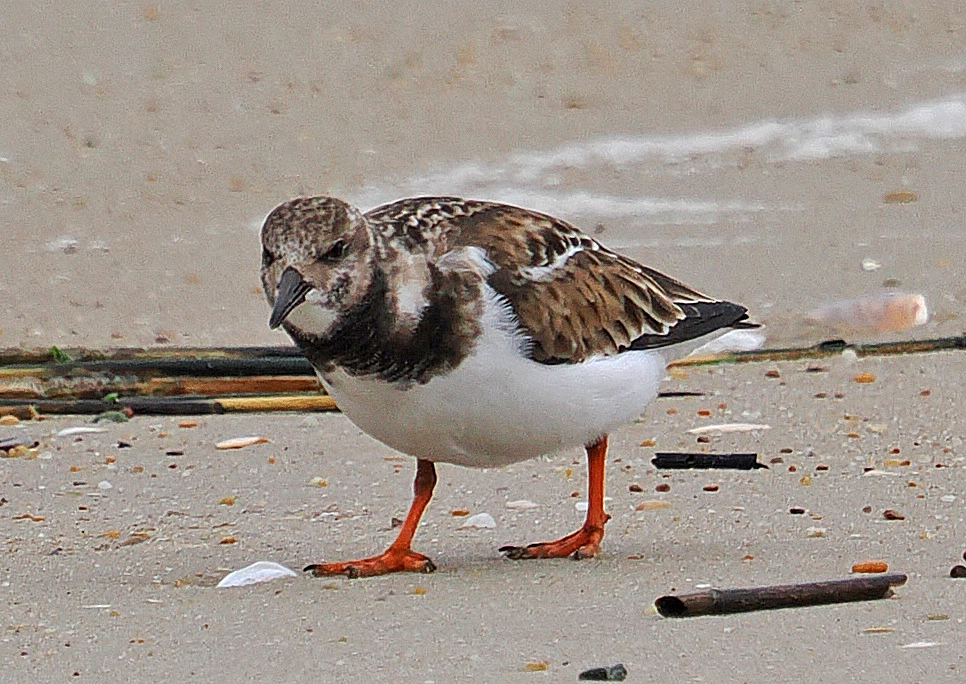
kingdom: Animalia
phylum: Chordata
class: Aves
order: Charadriiformes
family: Scolopacidae
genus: Arenaria
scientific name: Arenaria interpres
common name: Ruddy turnstone
